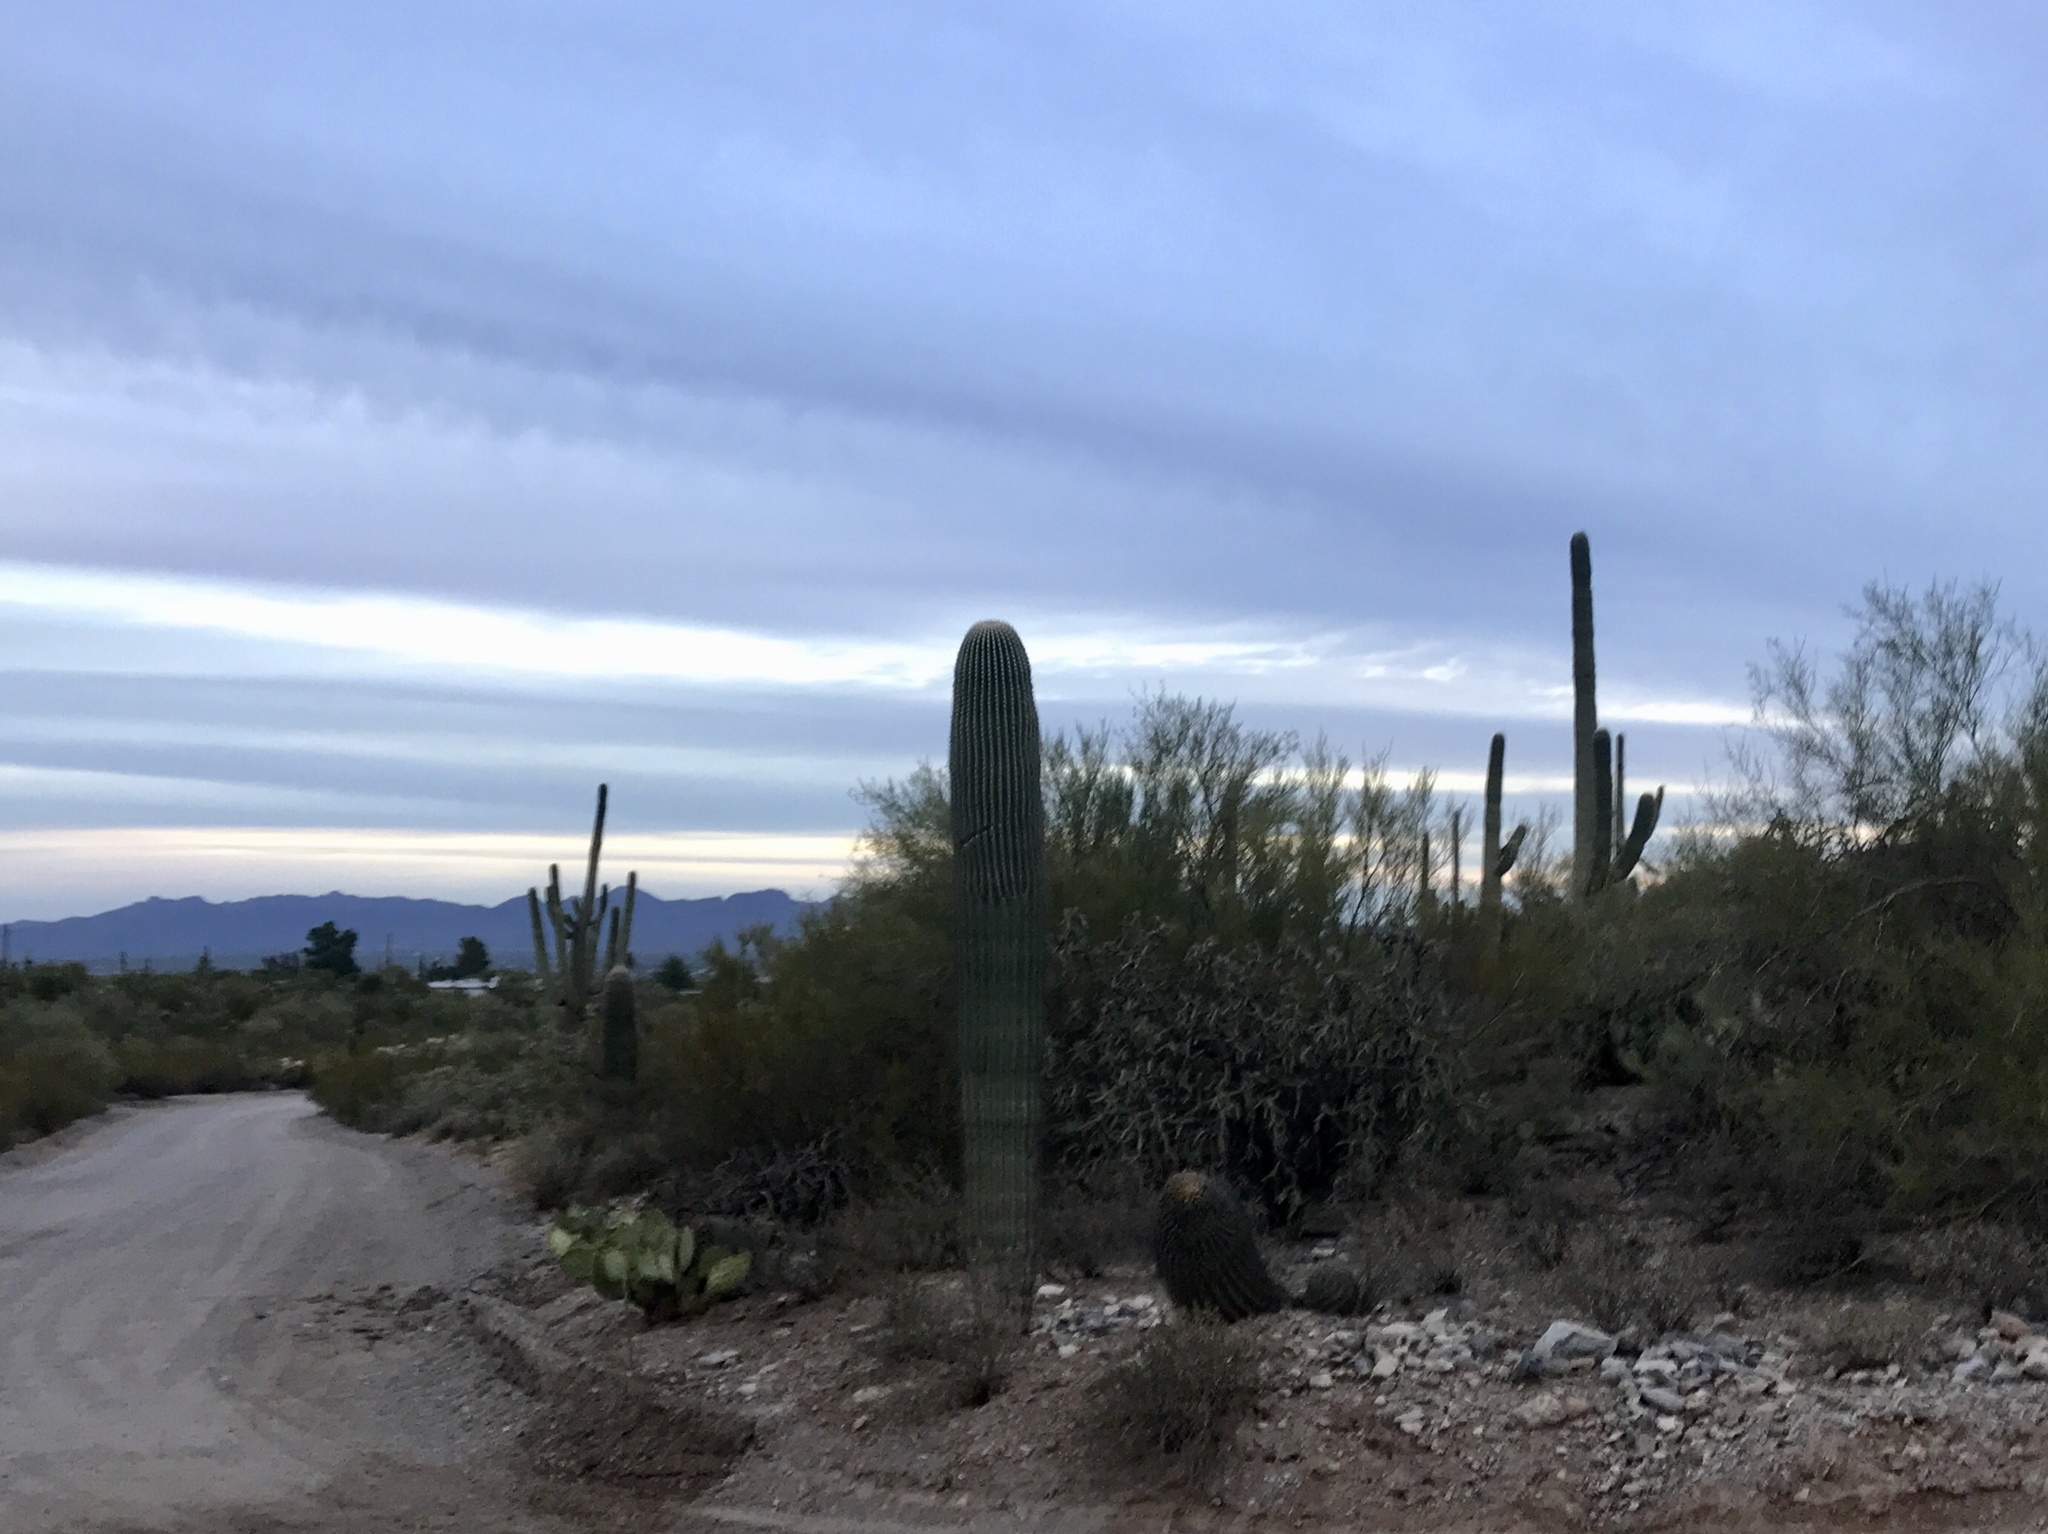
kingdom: Plantae
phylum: Tracheophyta
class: Magnoliopsida
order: Caryophyllales
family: Cactaceae
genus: Carnegiea
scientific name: Carnegiea gigantea
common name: Saguaro
